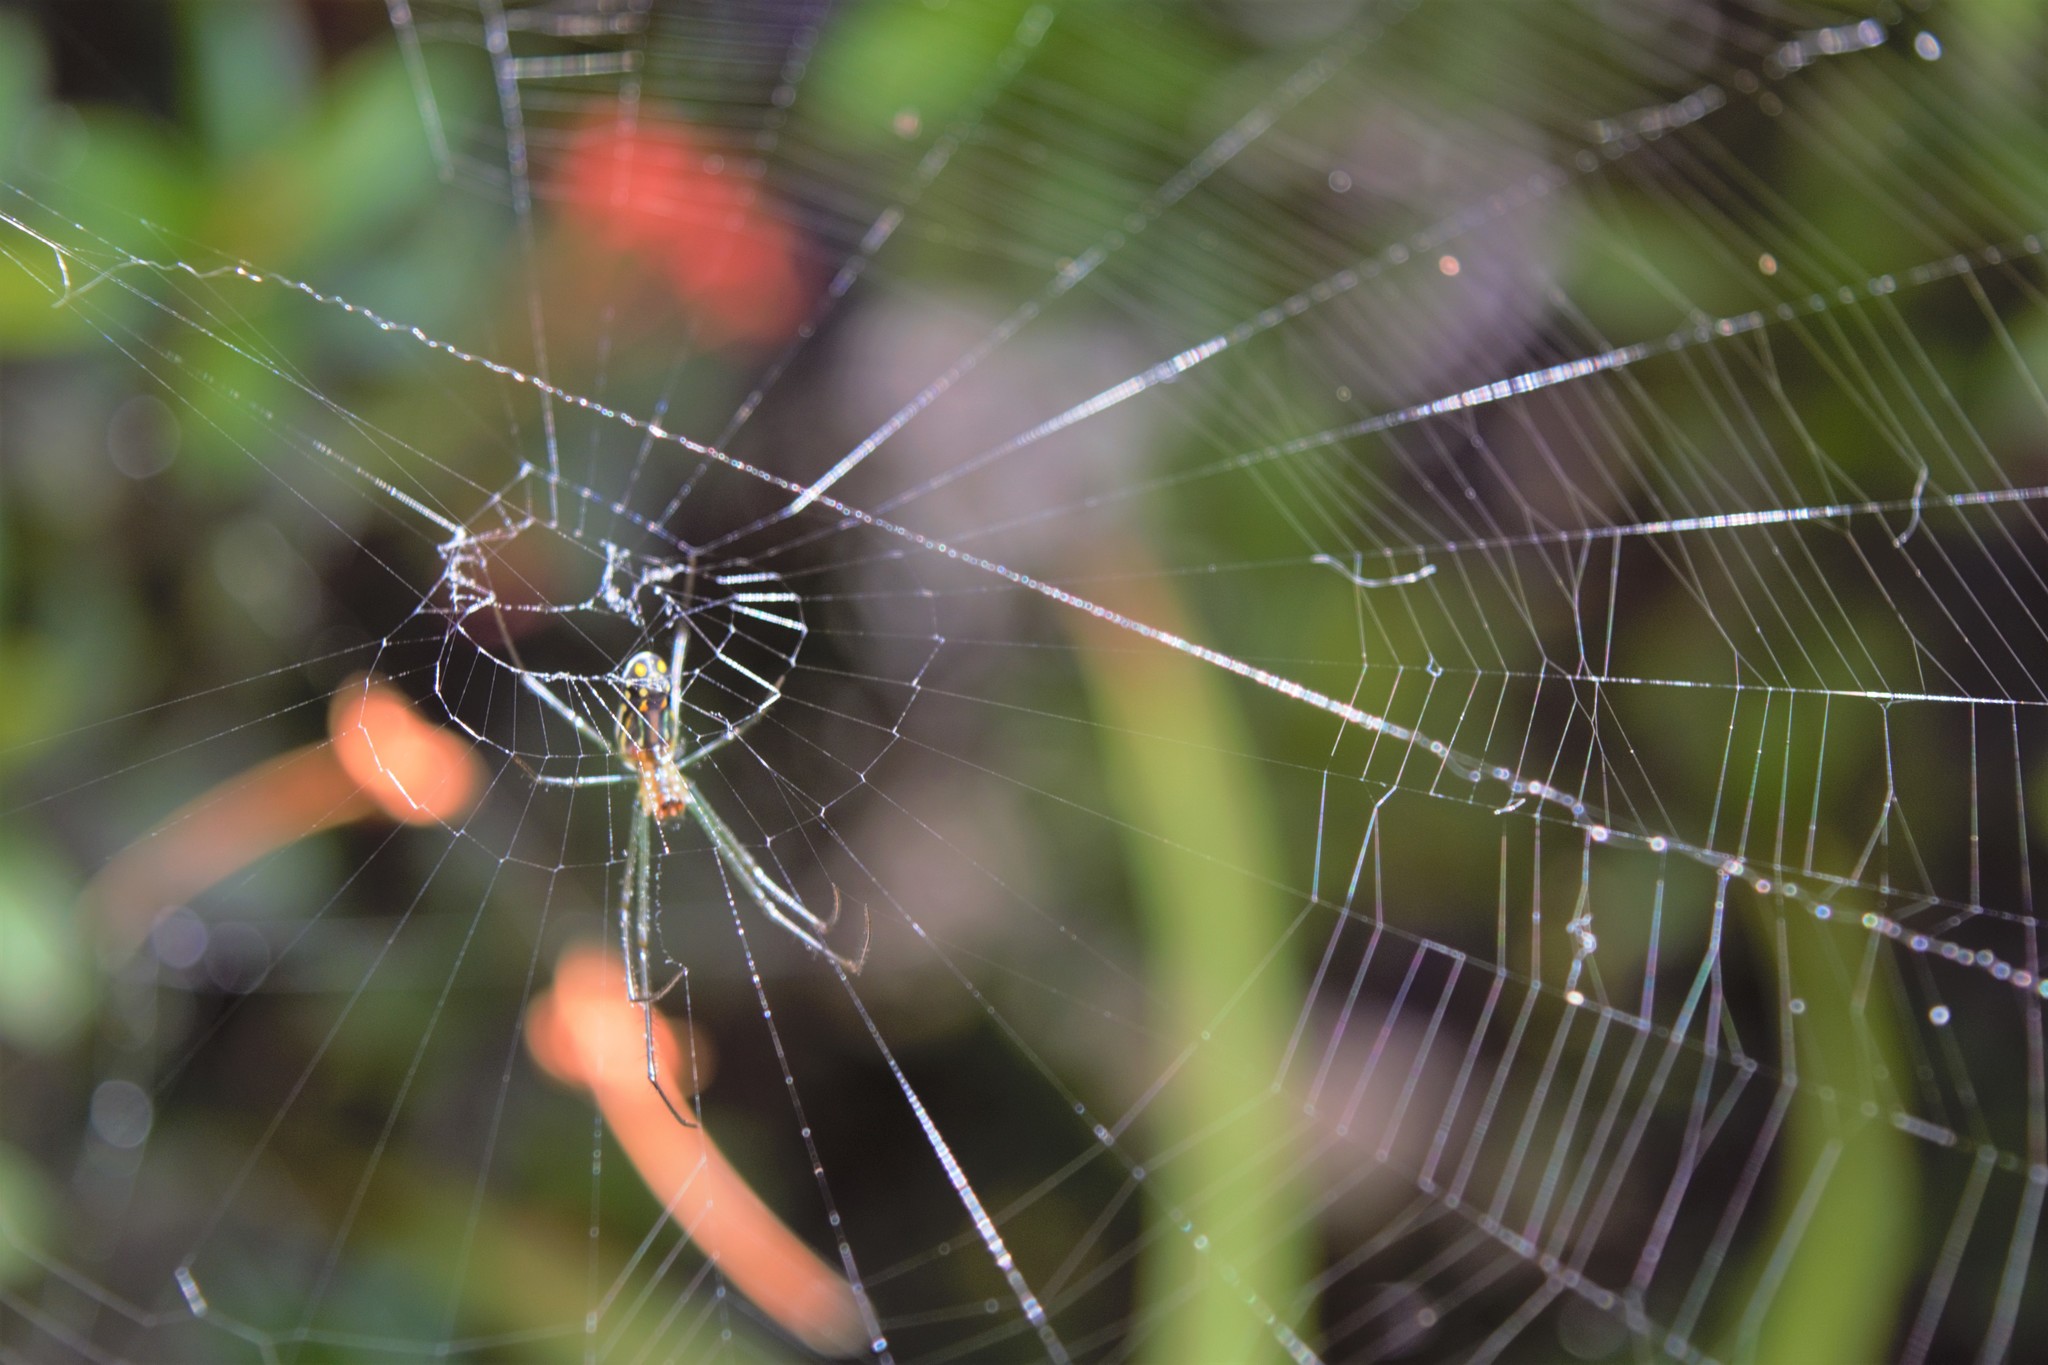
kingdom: Animalia
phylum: Arthropoda
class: Arachnida
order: Araneae
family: Tetragnathidae
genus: Leucauge
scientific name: Leucauge argyra
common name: Longjawed orb weavers
